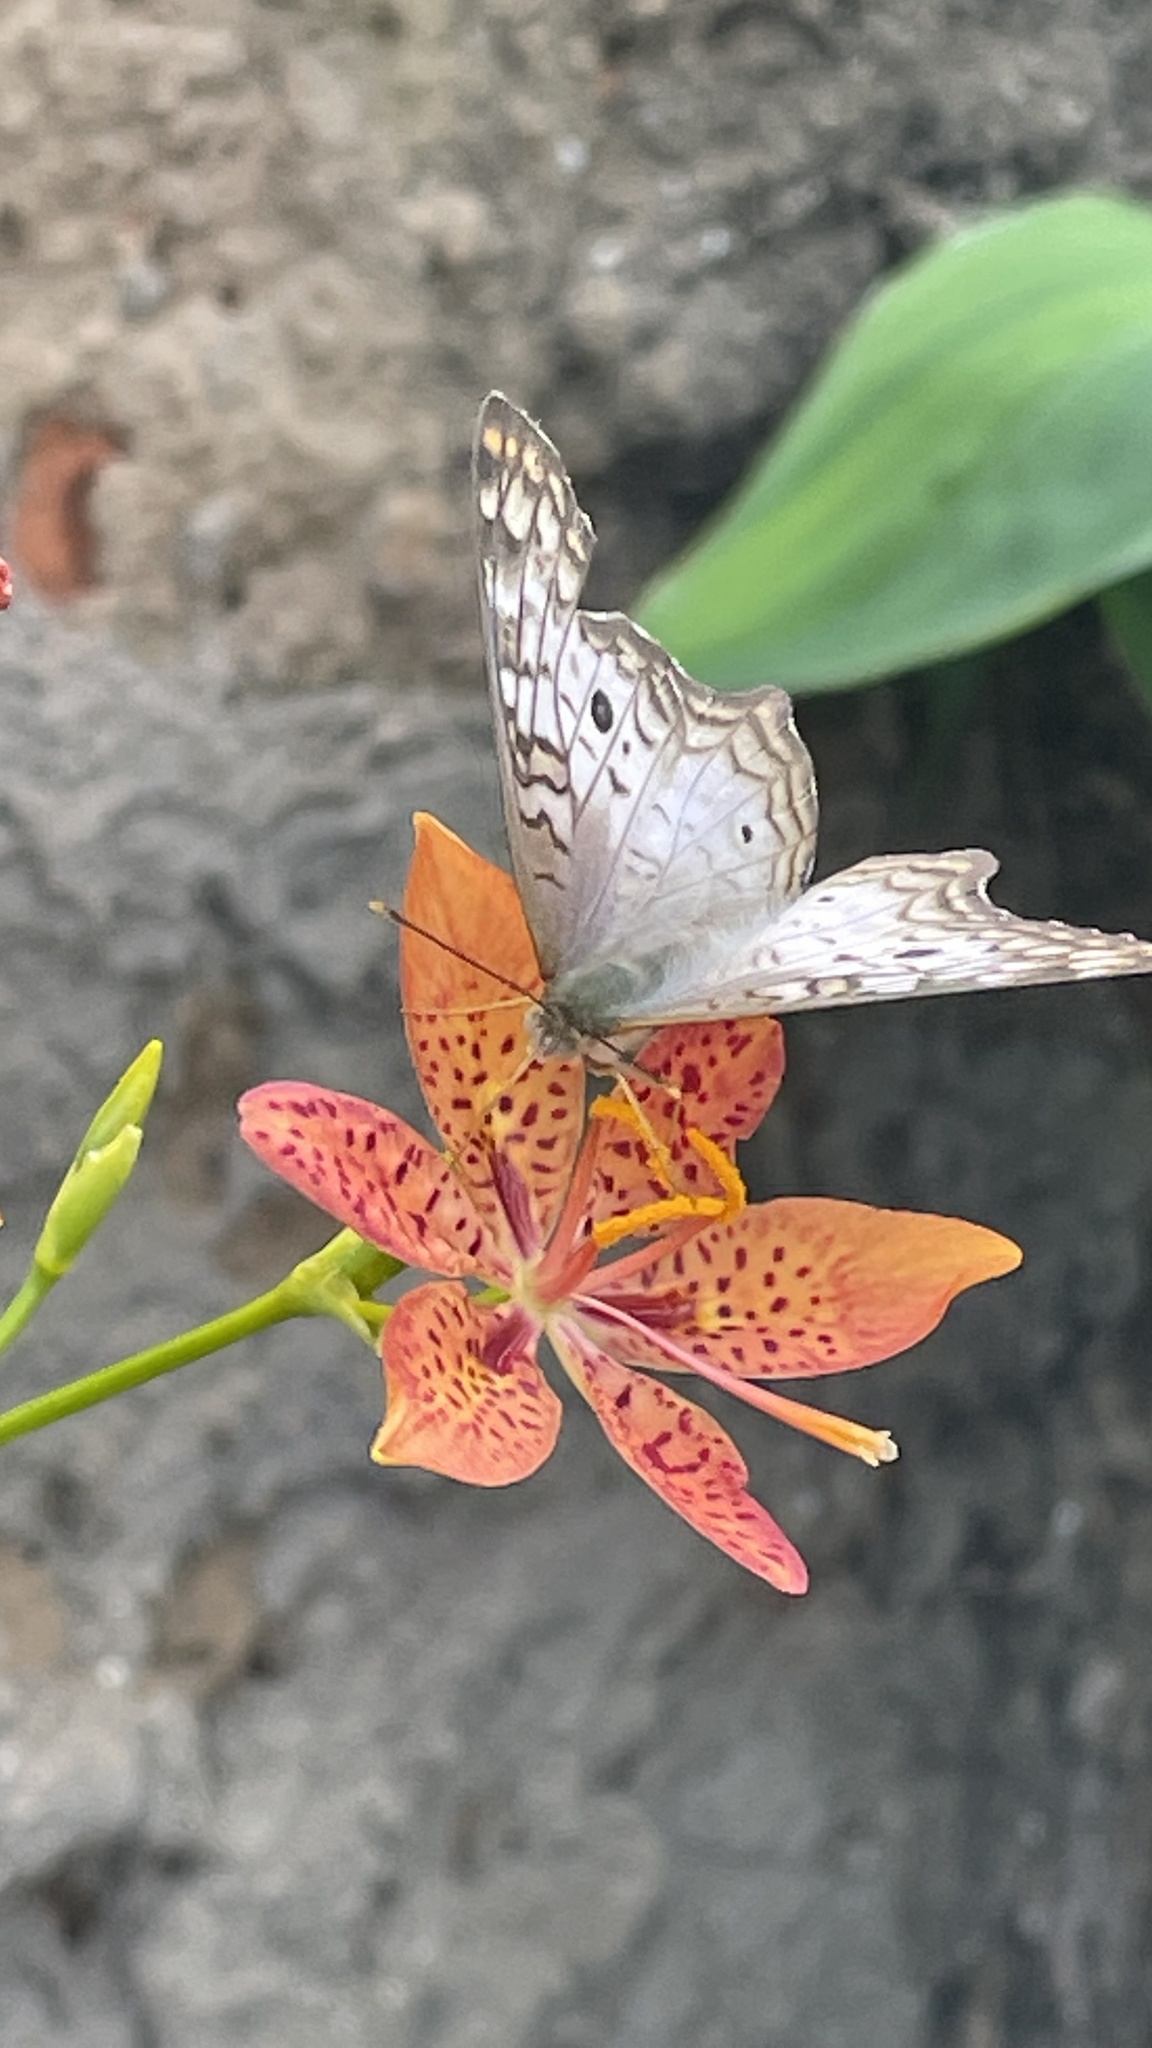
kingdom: Animalia
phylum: Arthropoda
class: Insecta
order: Lepidoptera
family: Nymphalidae
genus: Anartia
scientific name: Anartia jatrophae
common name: White peacock
